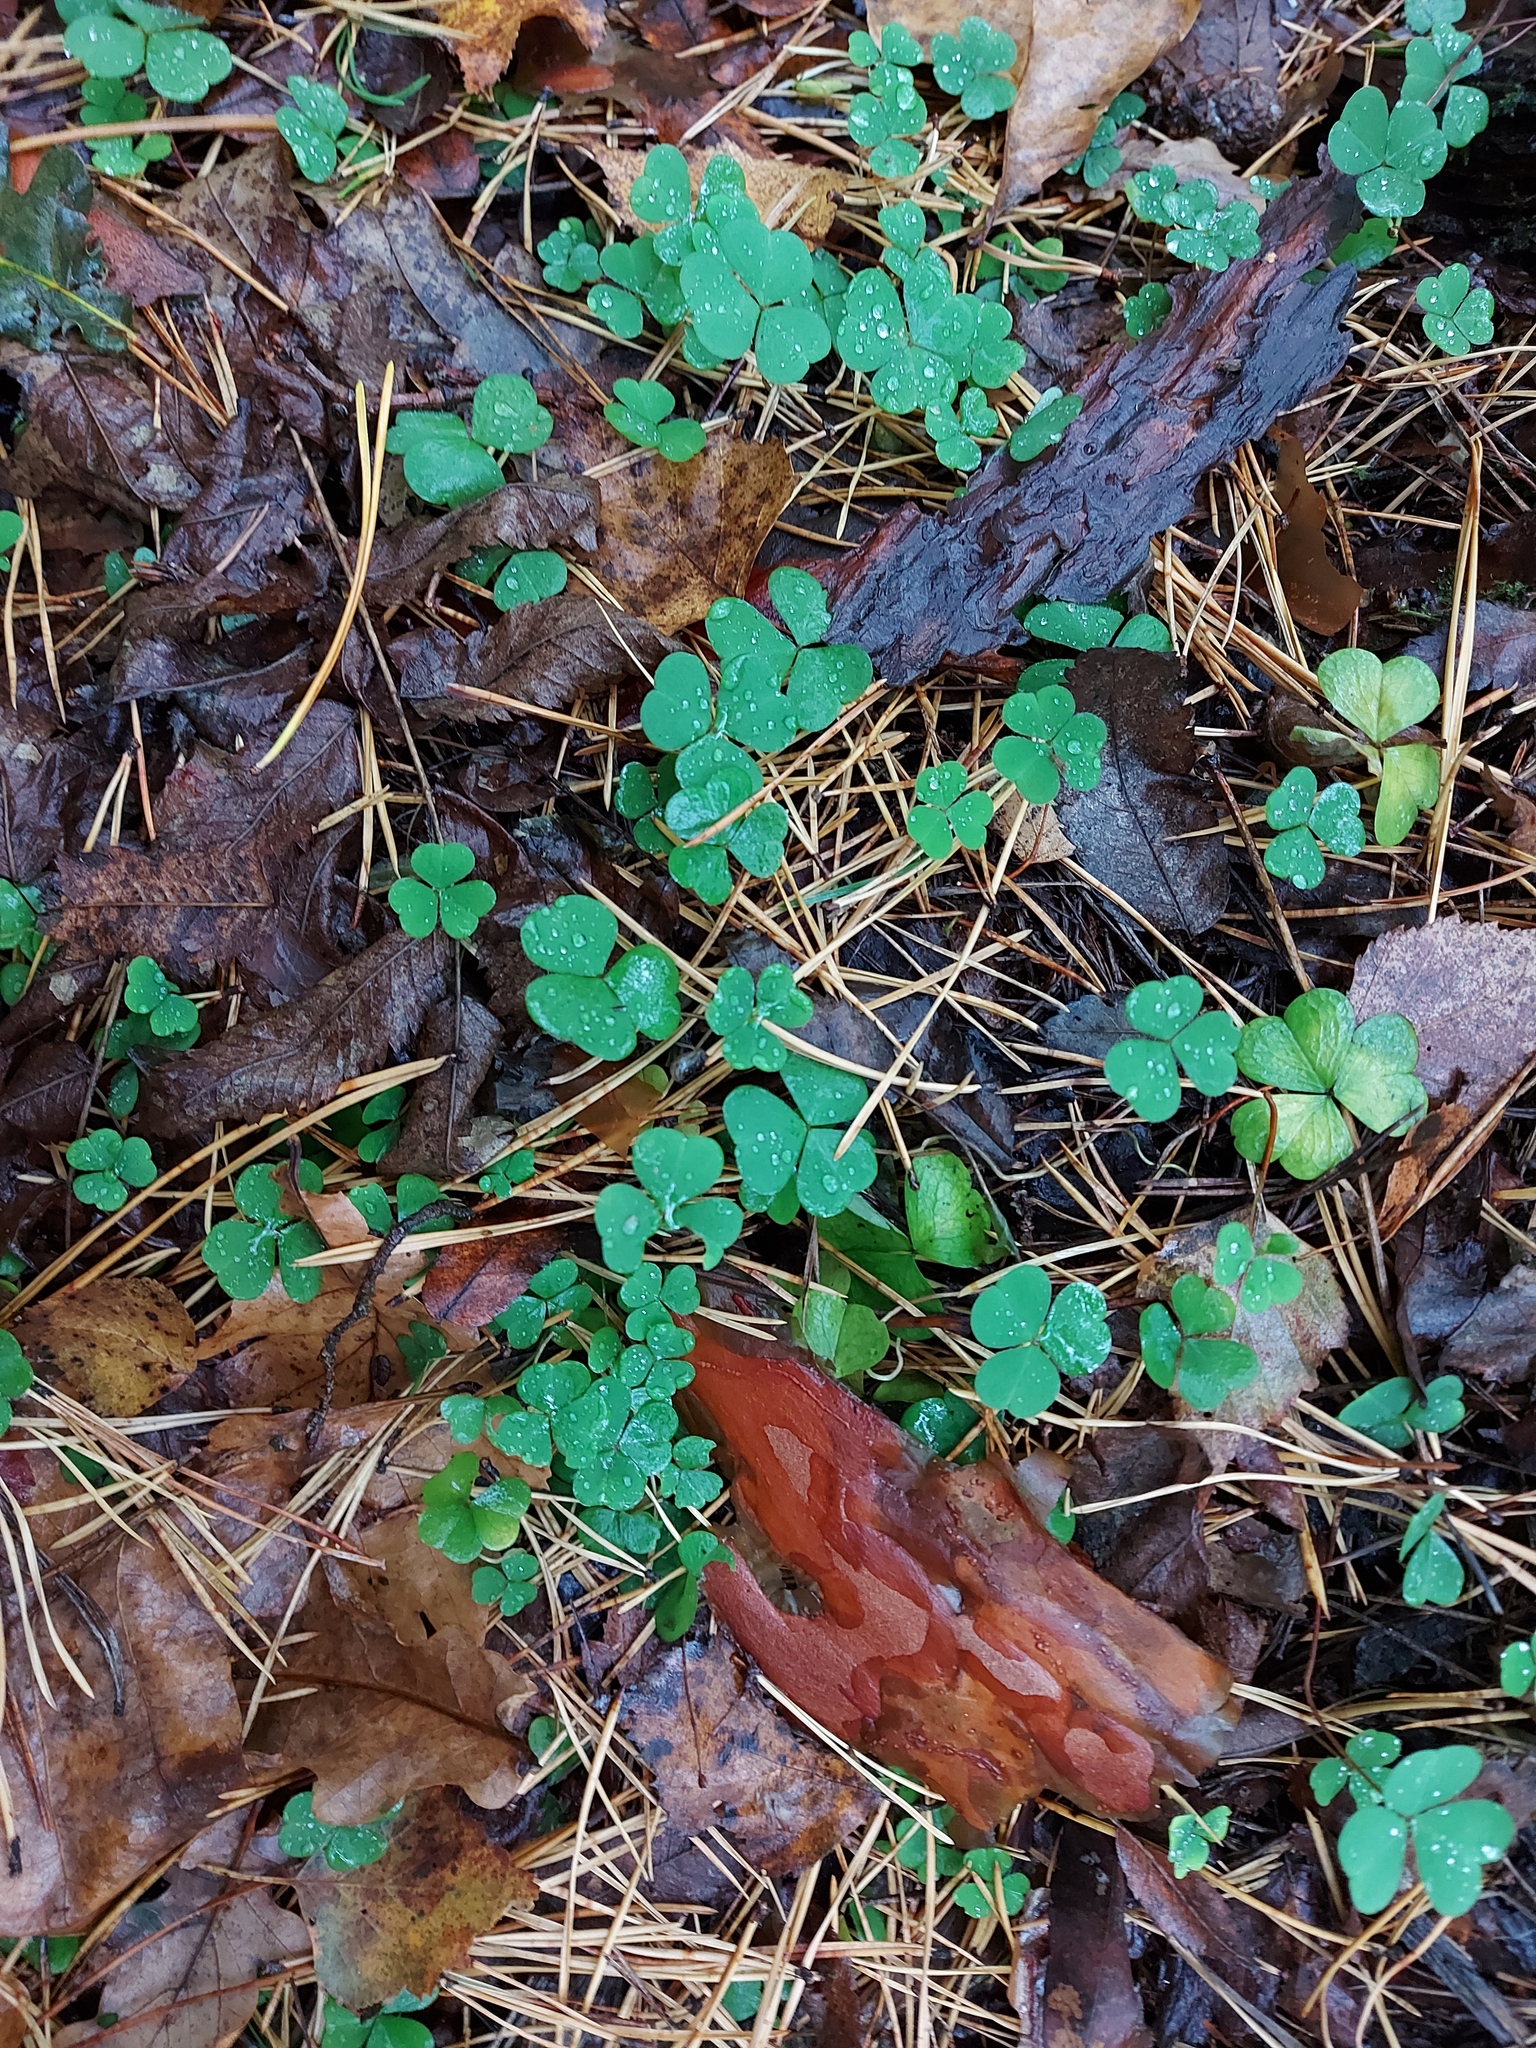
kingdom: Plantae
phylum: Tracheophyta
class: Magnoliopsida
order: Oxalidales
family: Oxalidaceae
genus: Oxalis
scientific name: Oxalis acetosella
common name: Wood-sorrel
